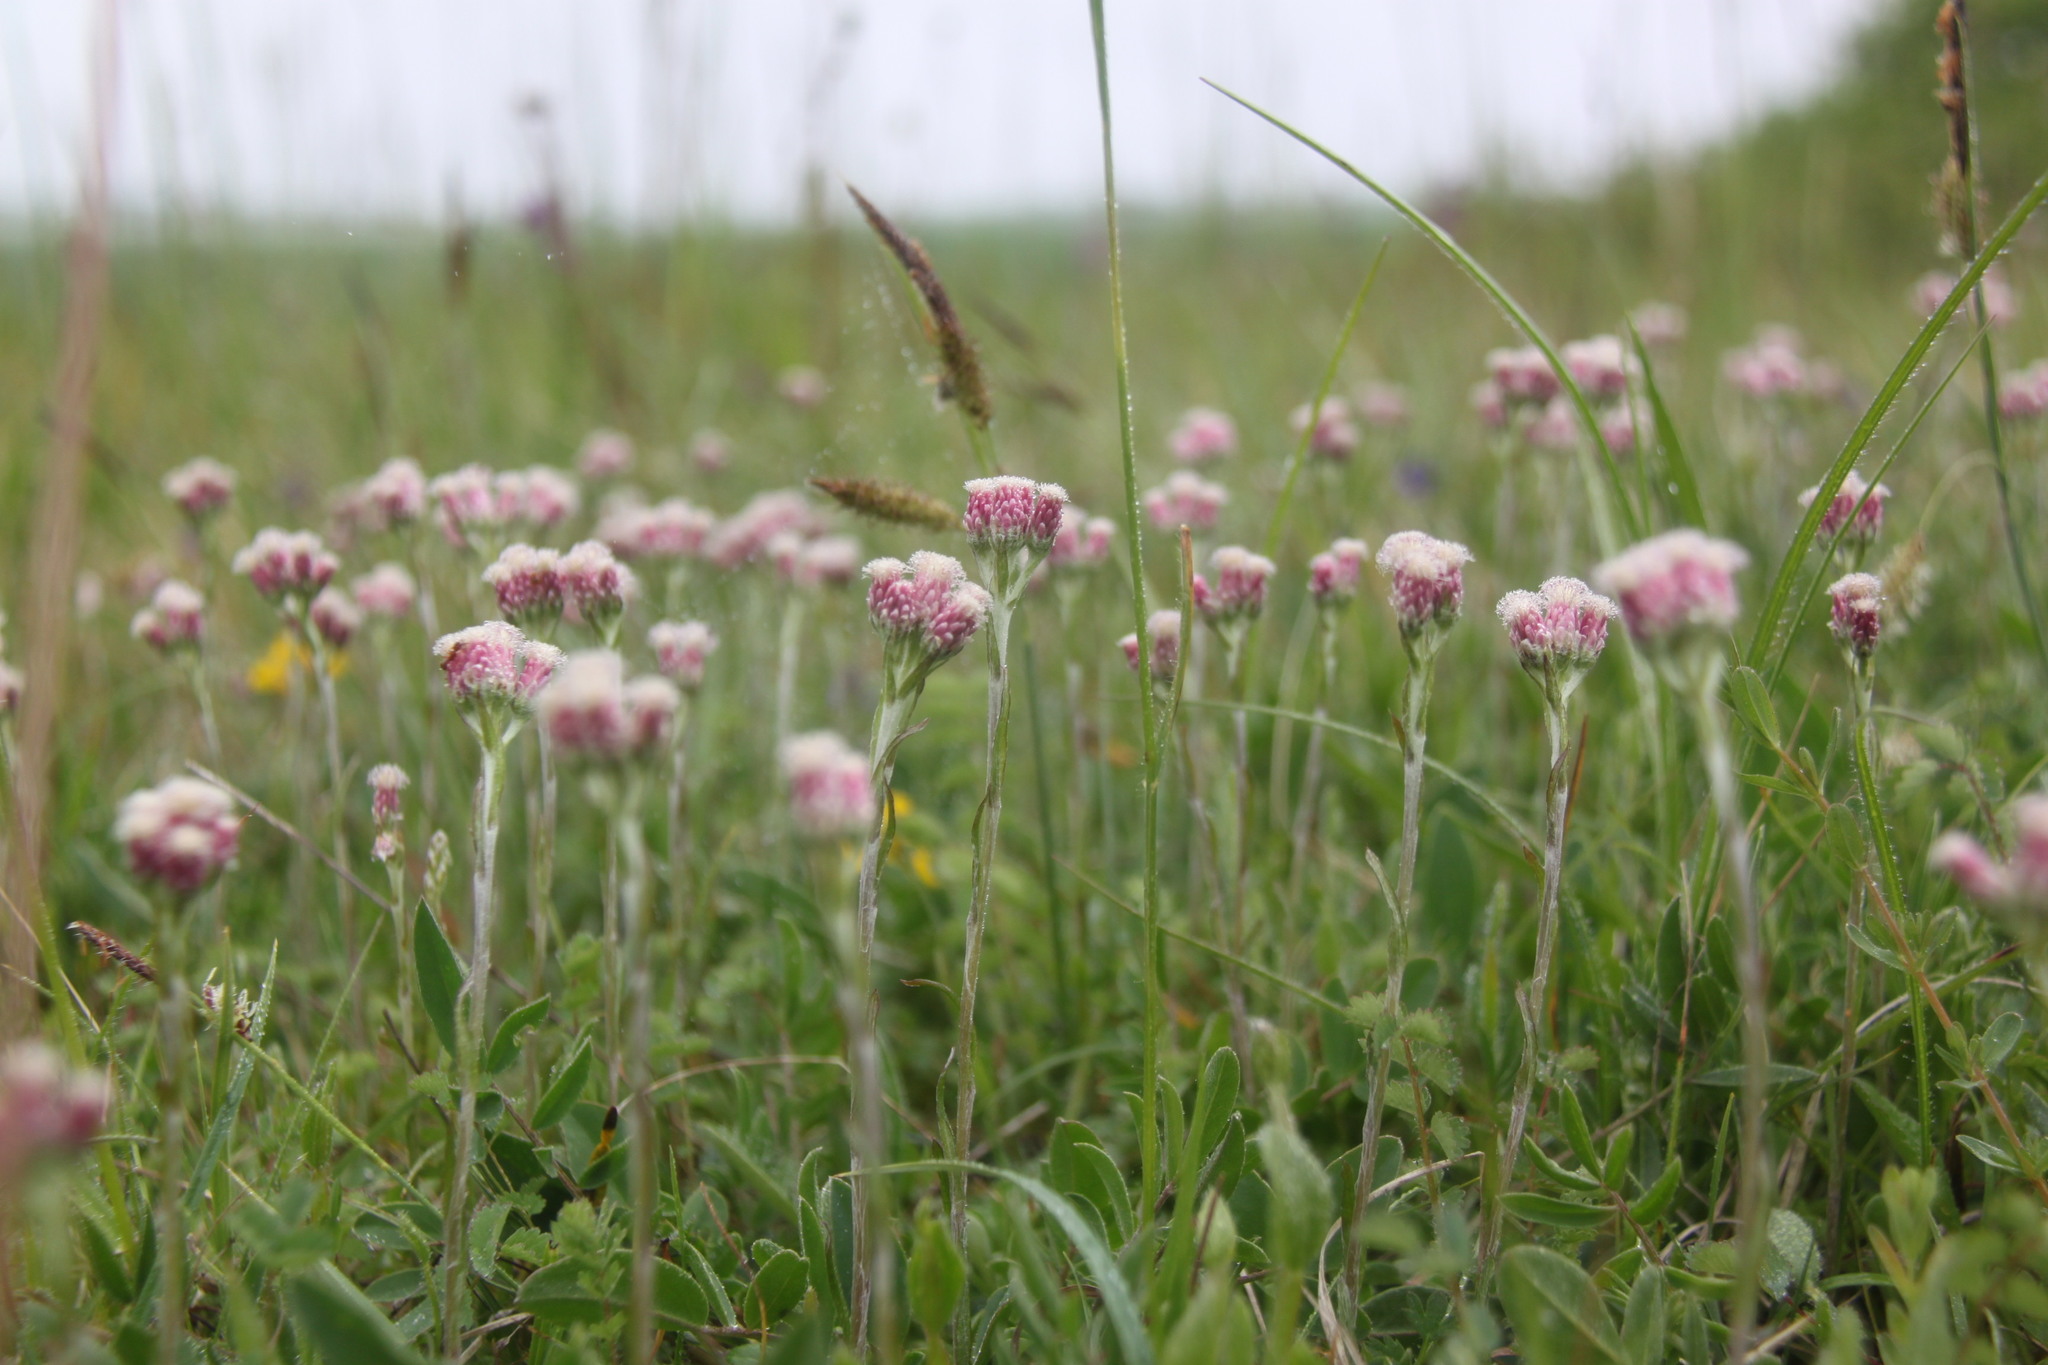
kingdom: Plantae
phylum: Tracheophyta
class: Magnoliopsida
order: Asterales
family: Asteraceae
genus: Antennaria
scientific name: Antennaria dioica
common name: Mountain everlasting
